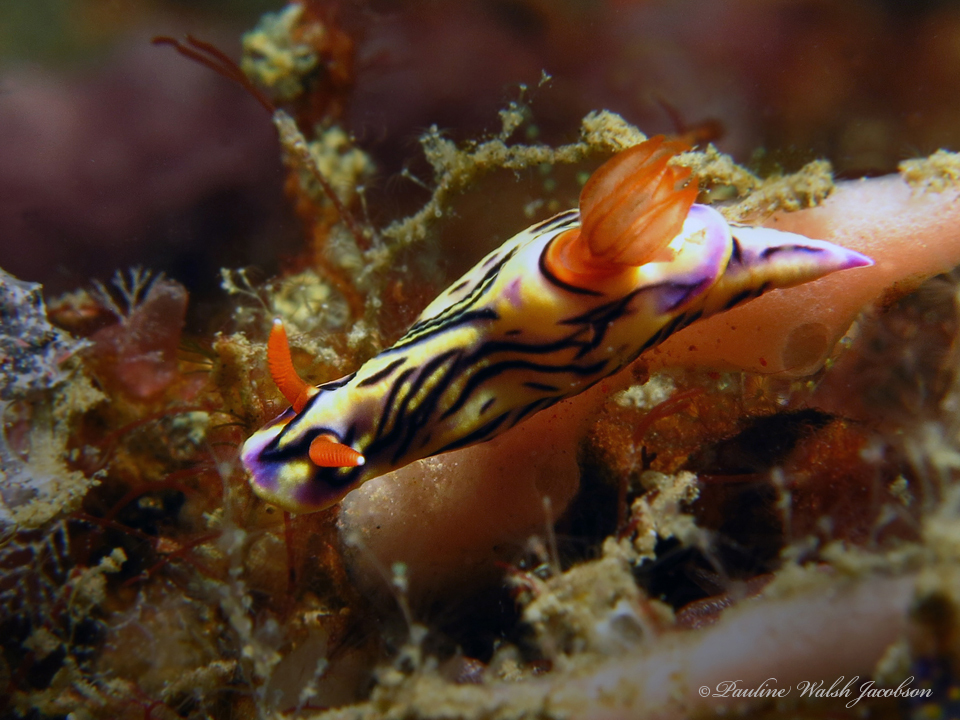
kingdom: Animalia
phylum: Mollusca
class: Gastropoda
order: Nudibranchia
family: Chromodorididae
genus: Hypselodoris
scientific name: Hypselodoris zephyra
